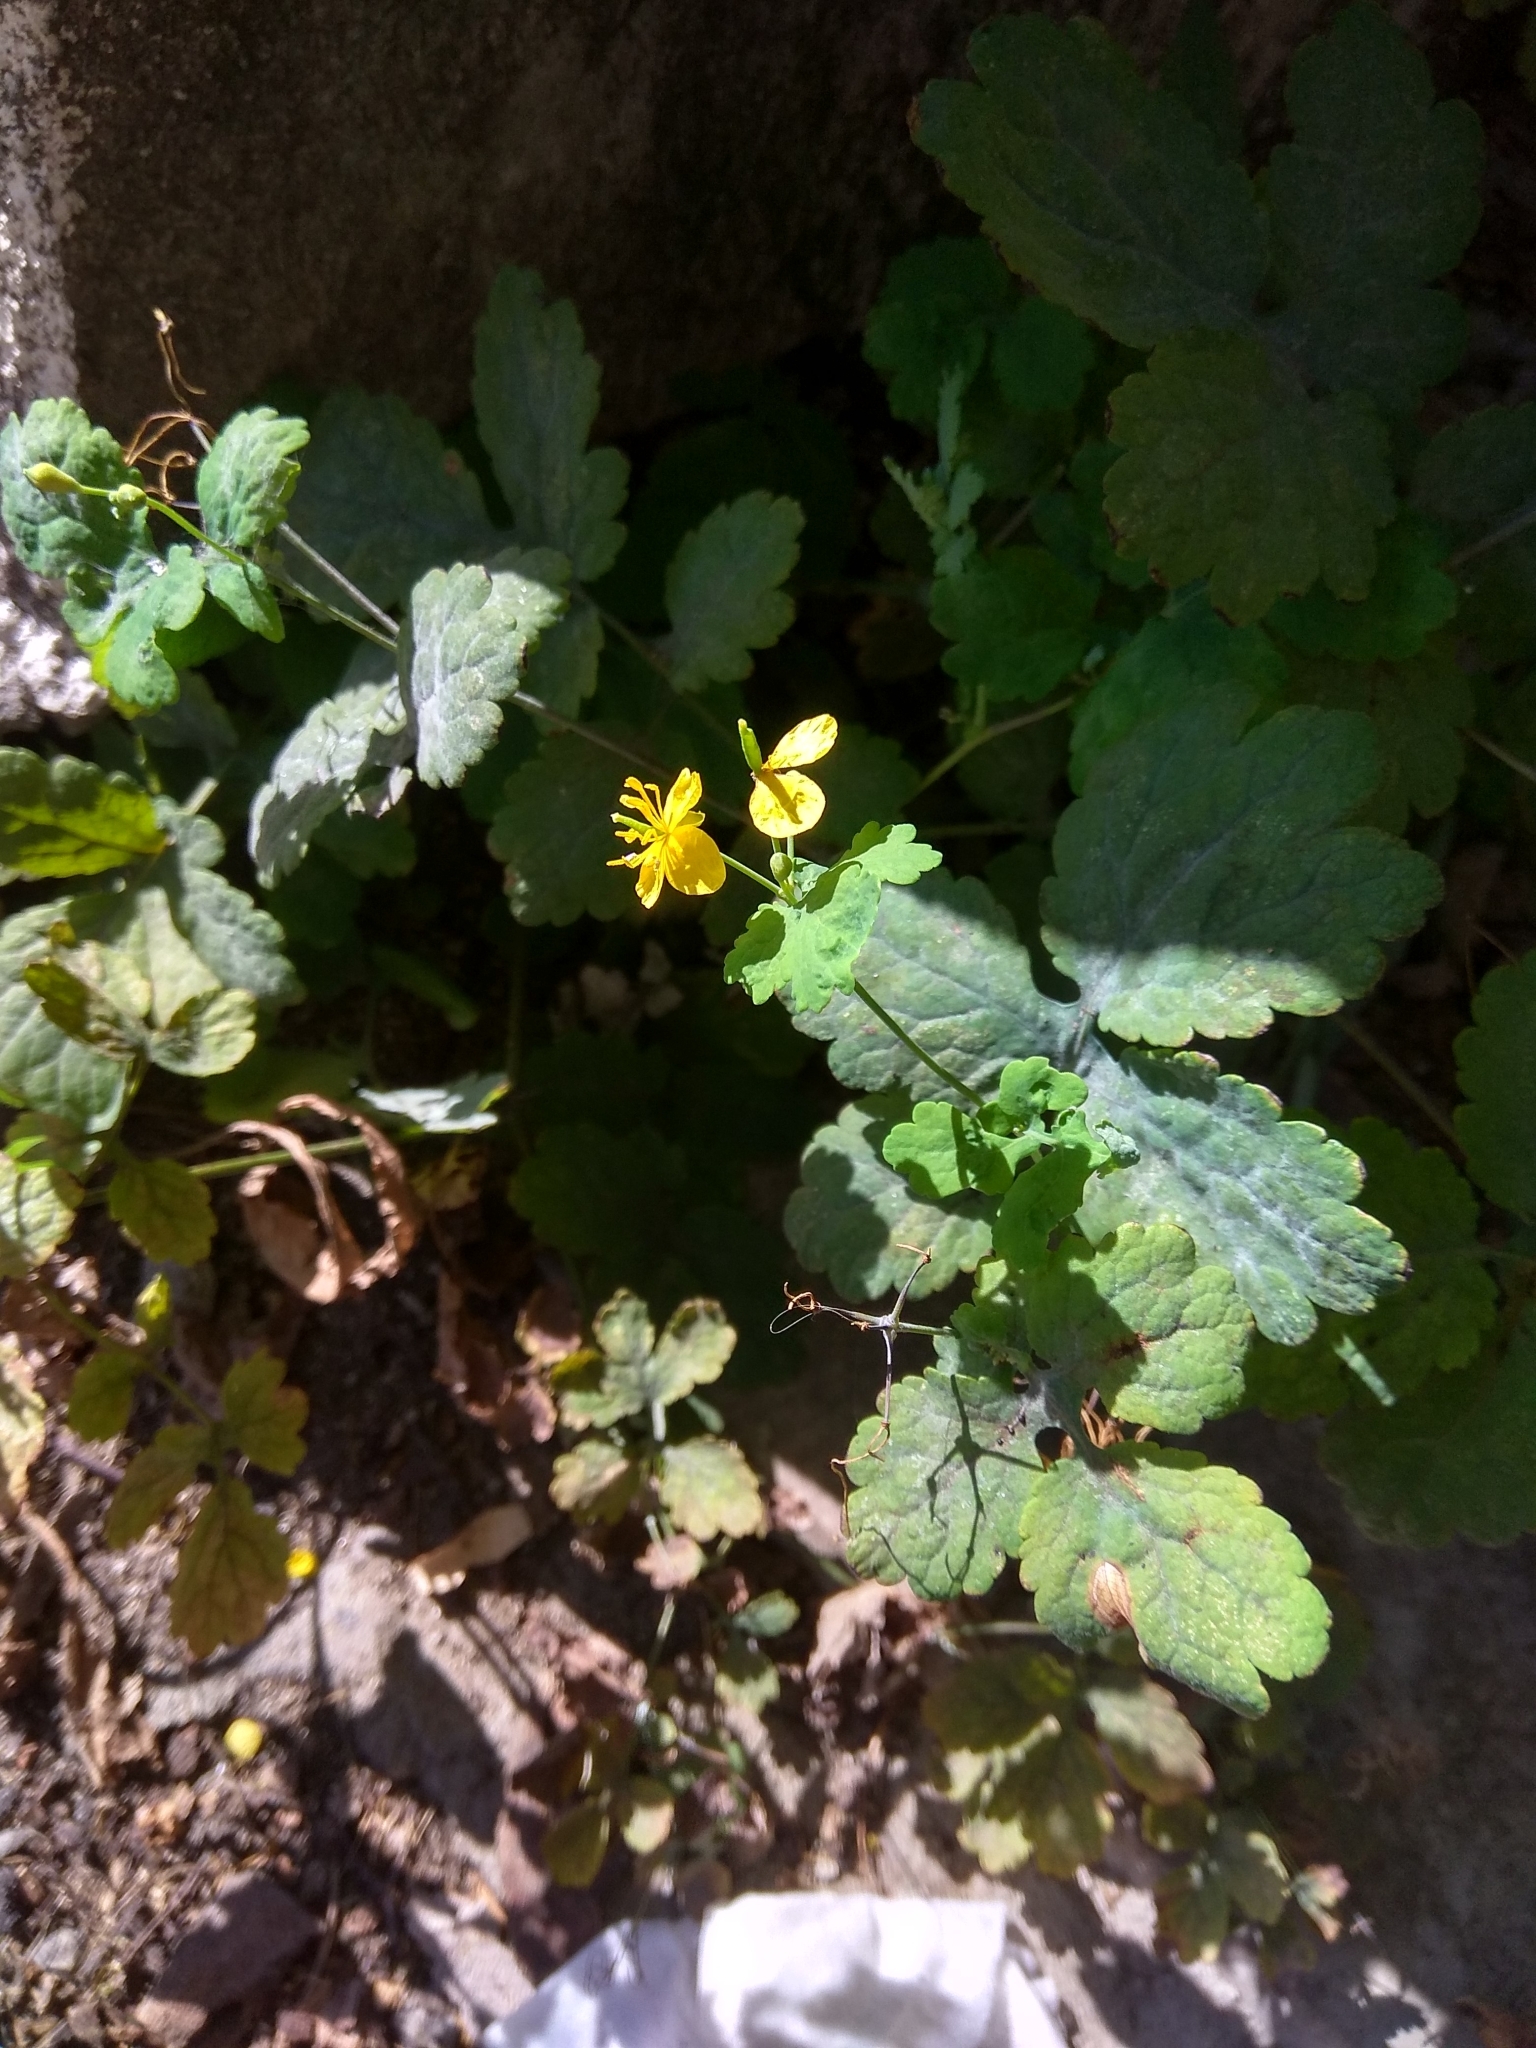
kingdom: Plantae
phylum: Tracheophyta
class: Magnoliopsida
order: Ranunculales
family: Papaveraceae
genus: Chelidonium
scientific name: Chelidonium majus
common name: Greater celandine
